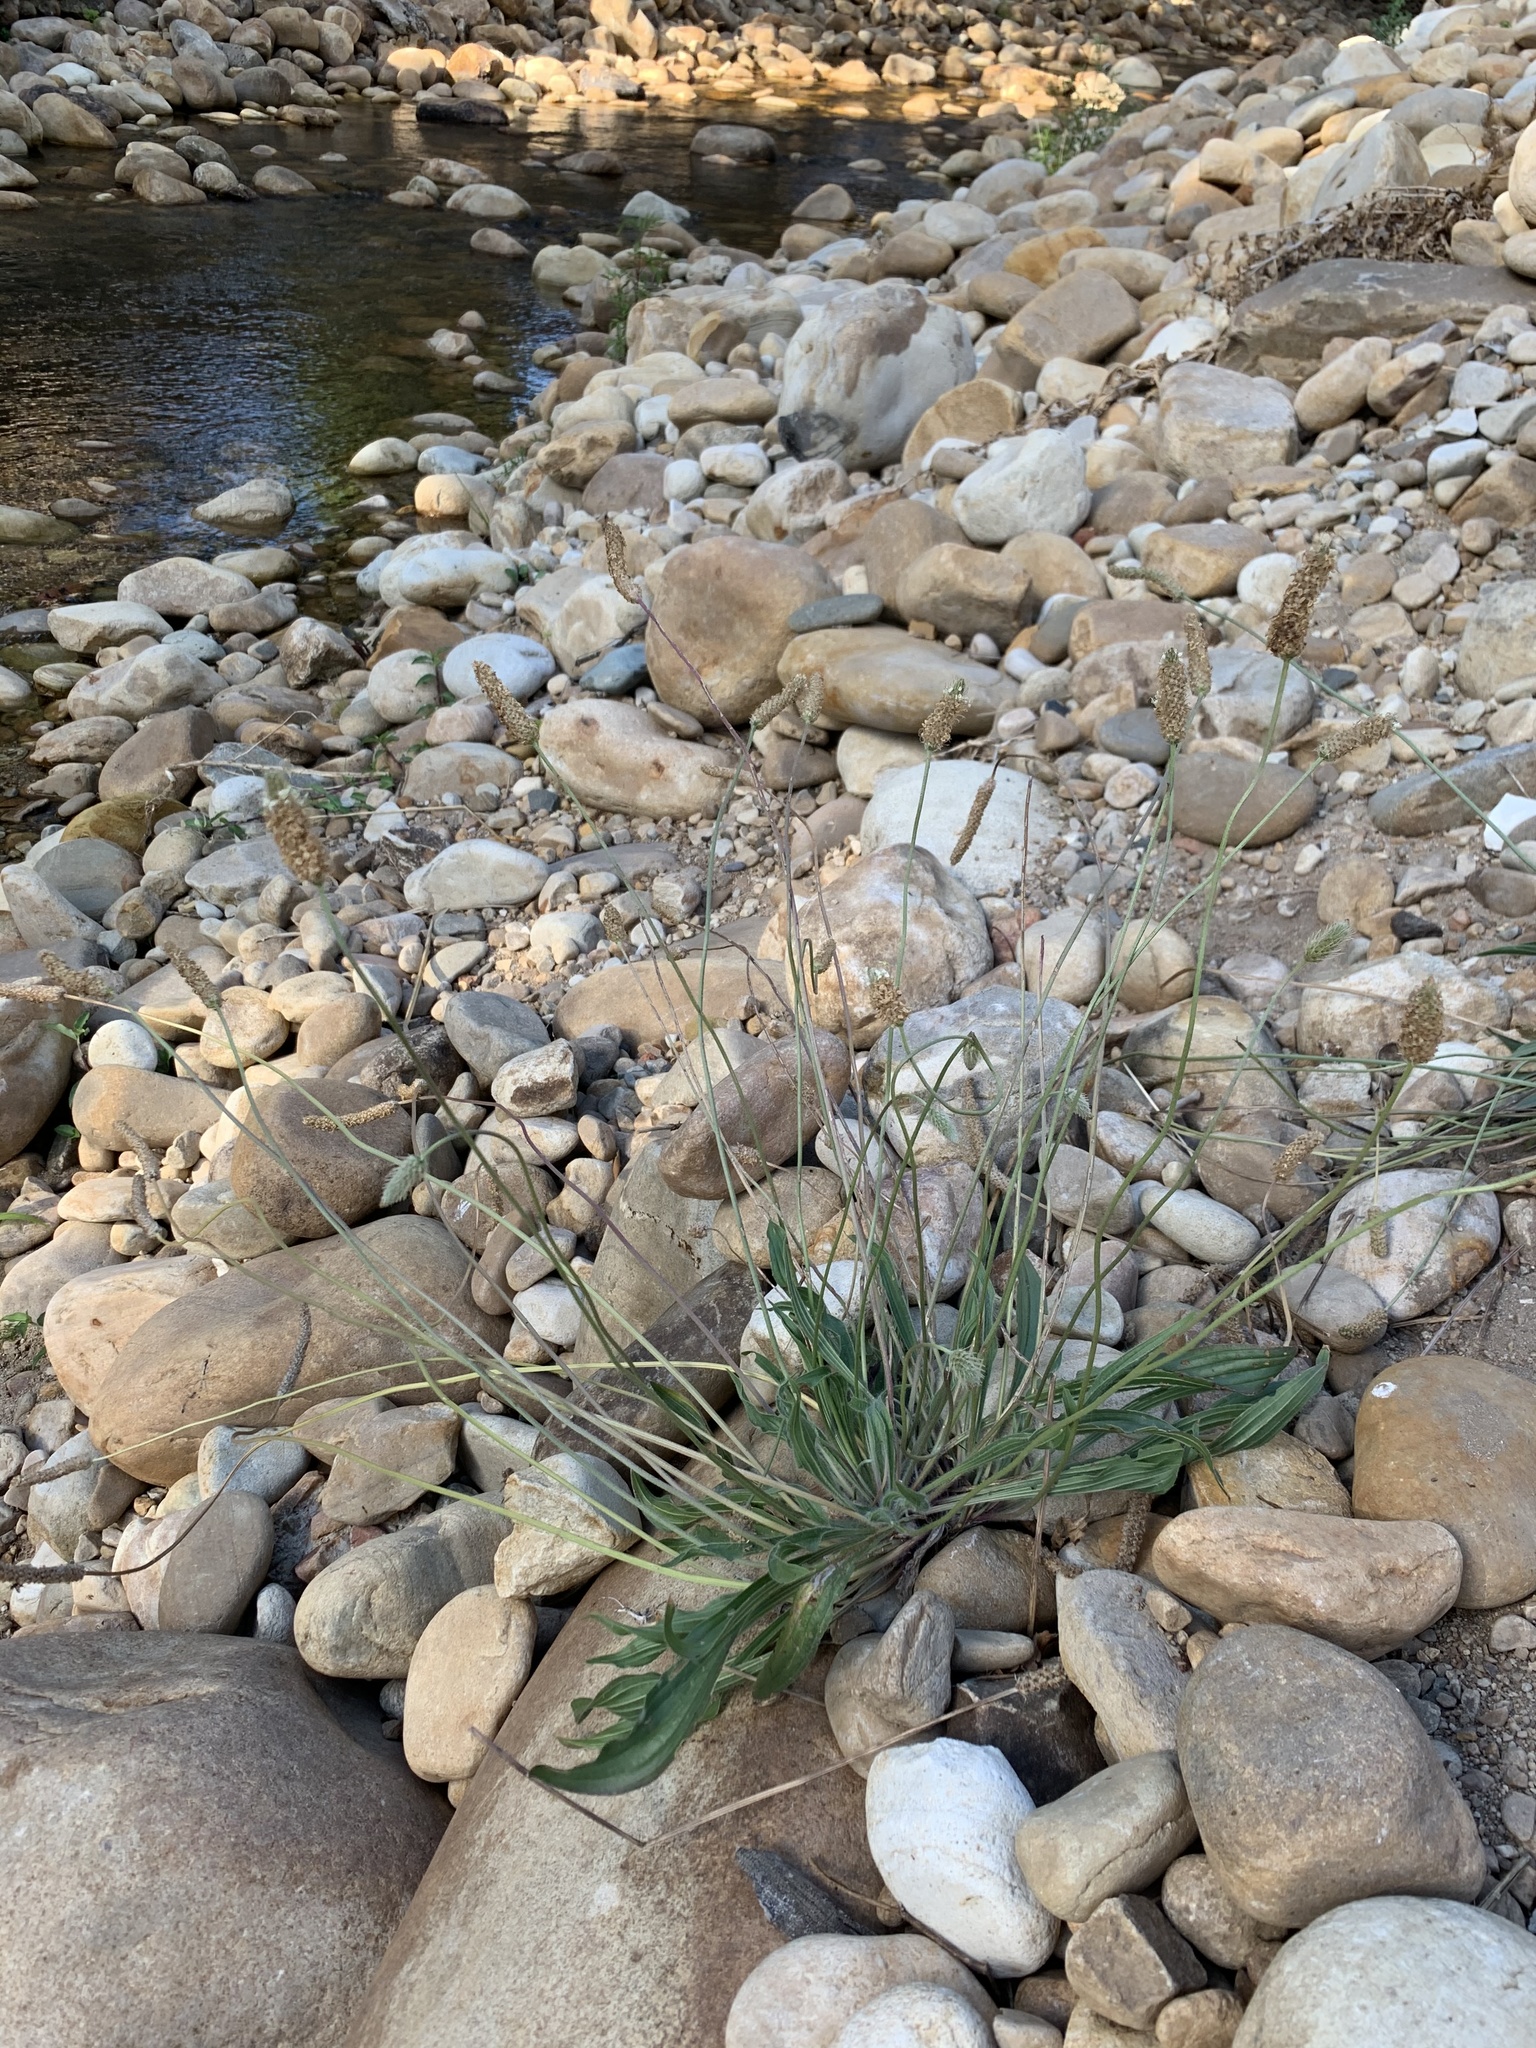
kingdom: Plantae
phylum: Tracheophyta
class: Magnoliopsida
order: Lamiales
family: Plantaginaceae
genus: Plantago
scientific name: Plantago lanceolata
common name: Ribwort plantain
